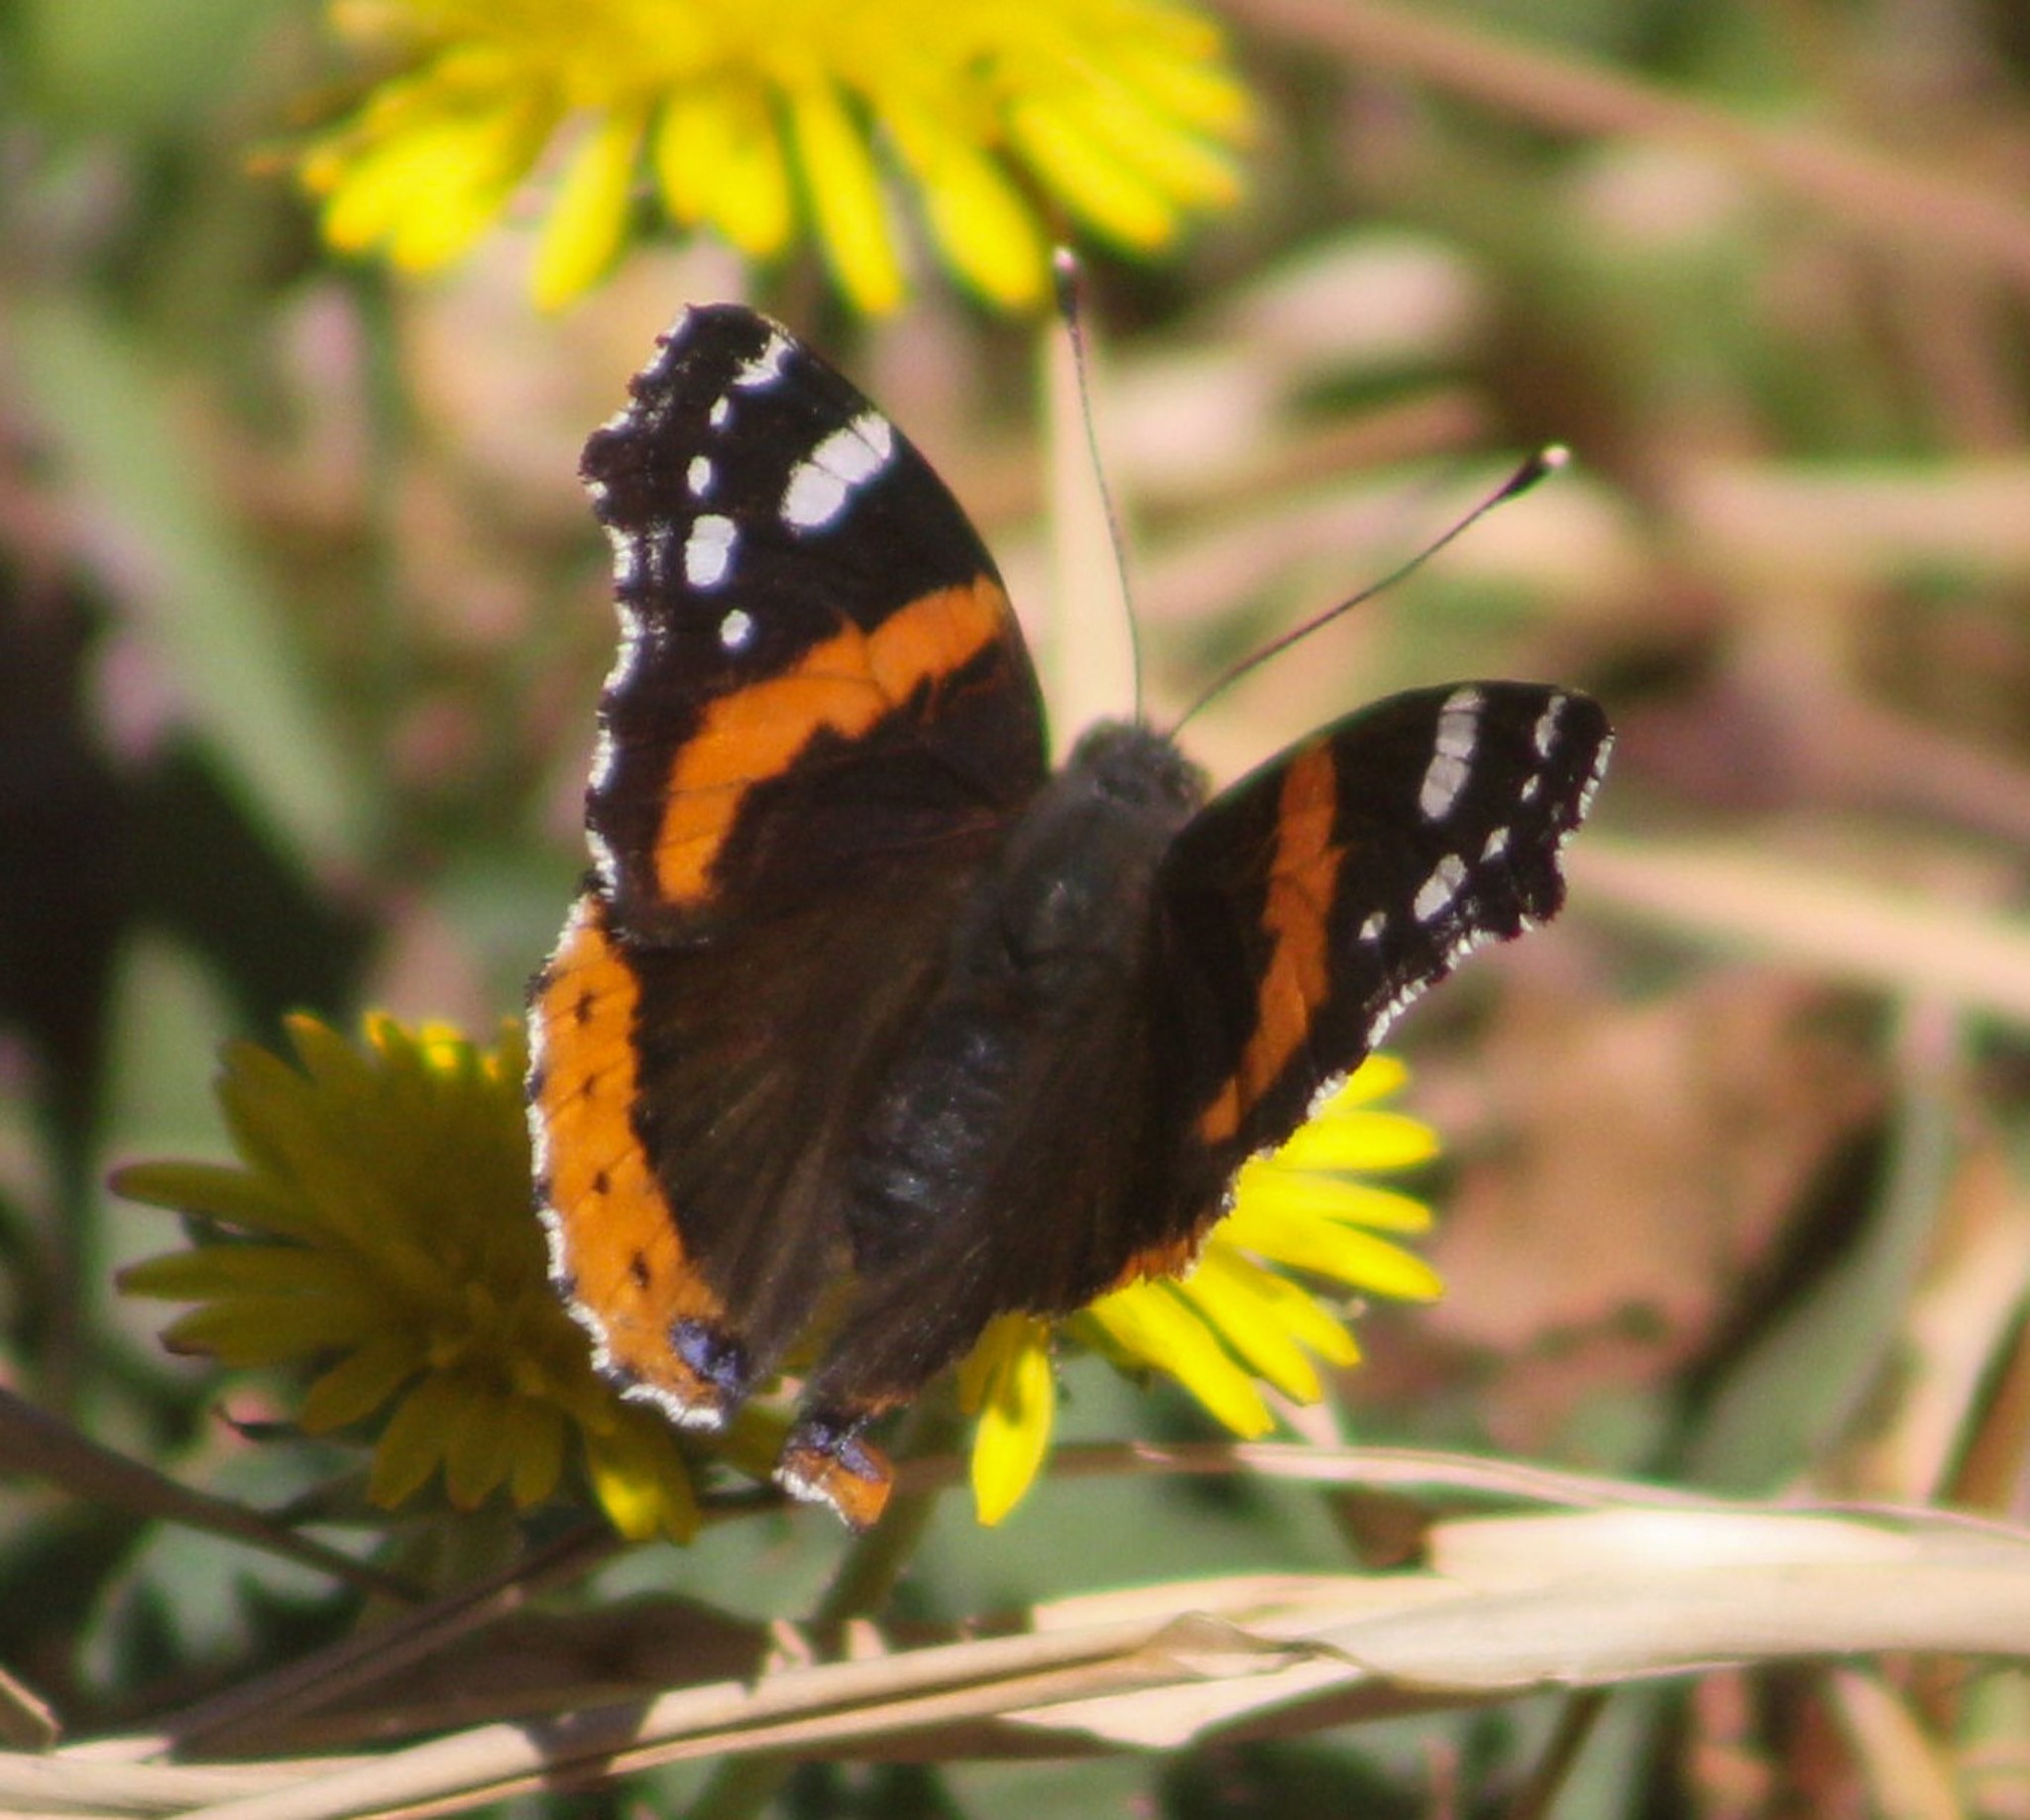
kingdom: Animalia
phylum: Arthropoda
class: Insecta
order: Lepidoptera
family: Nymphalidae
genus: Vanessa
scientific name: Vanessa atalanta
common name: Red admiral
